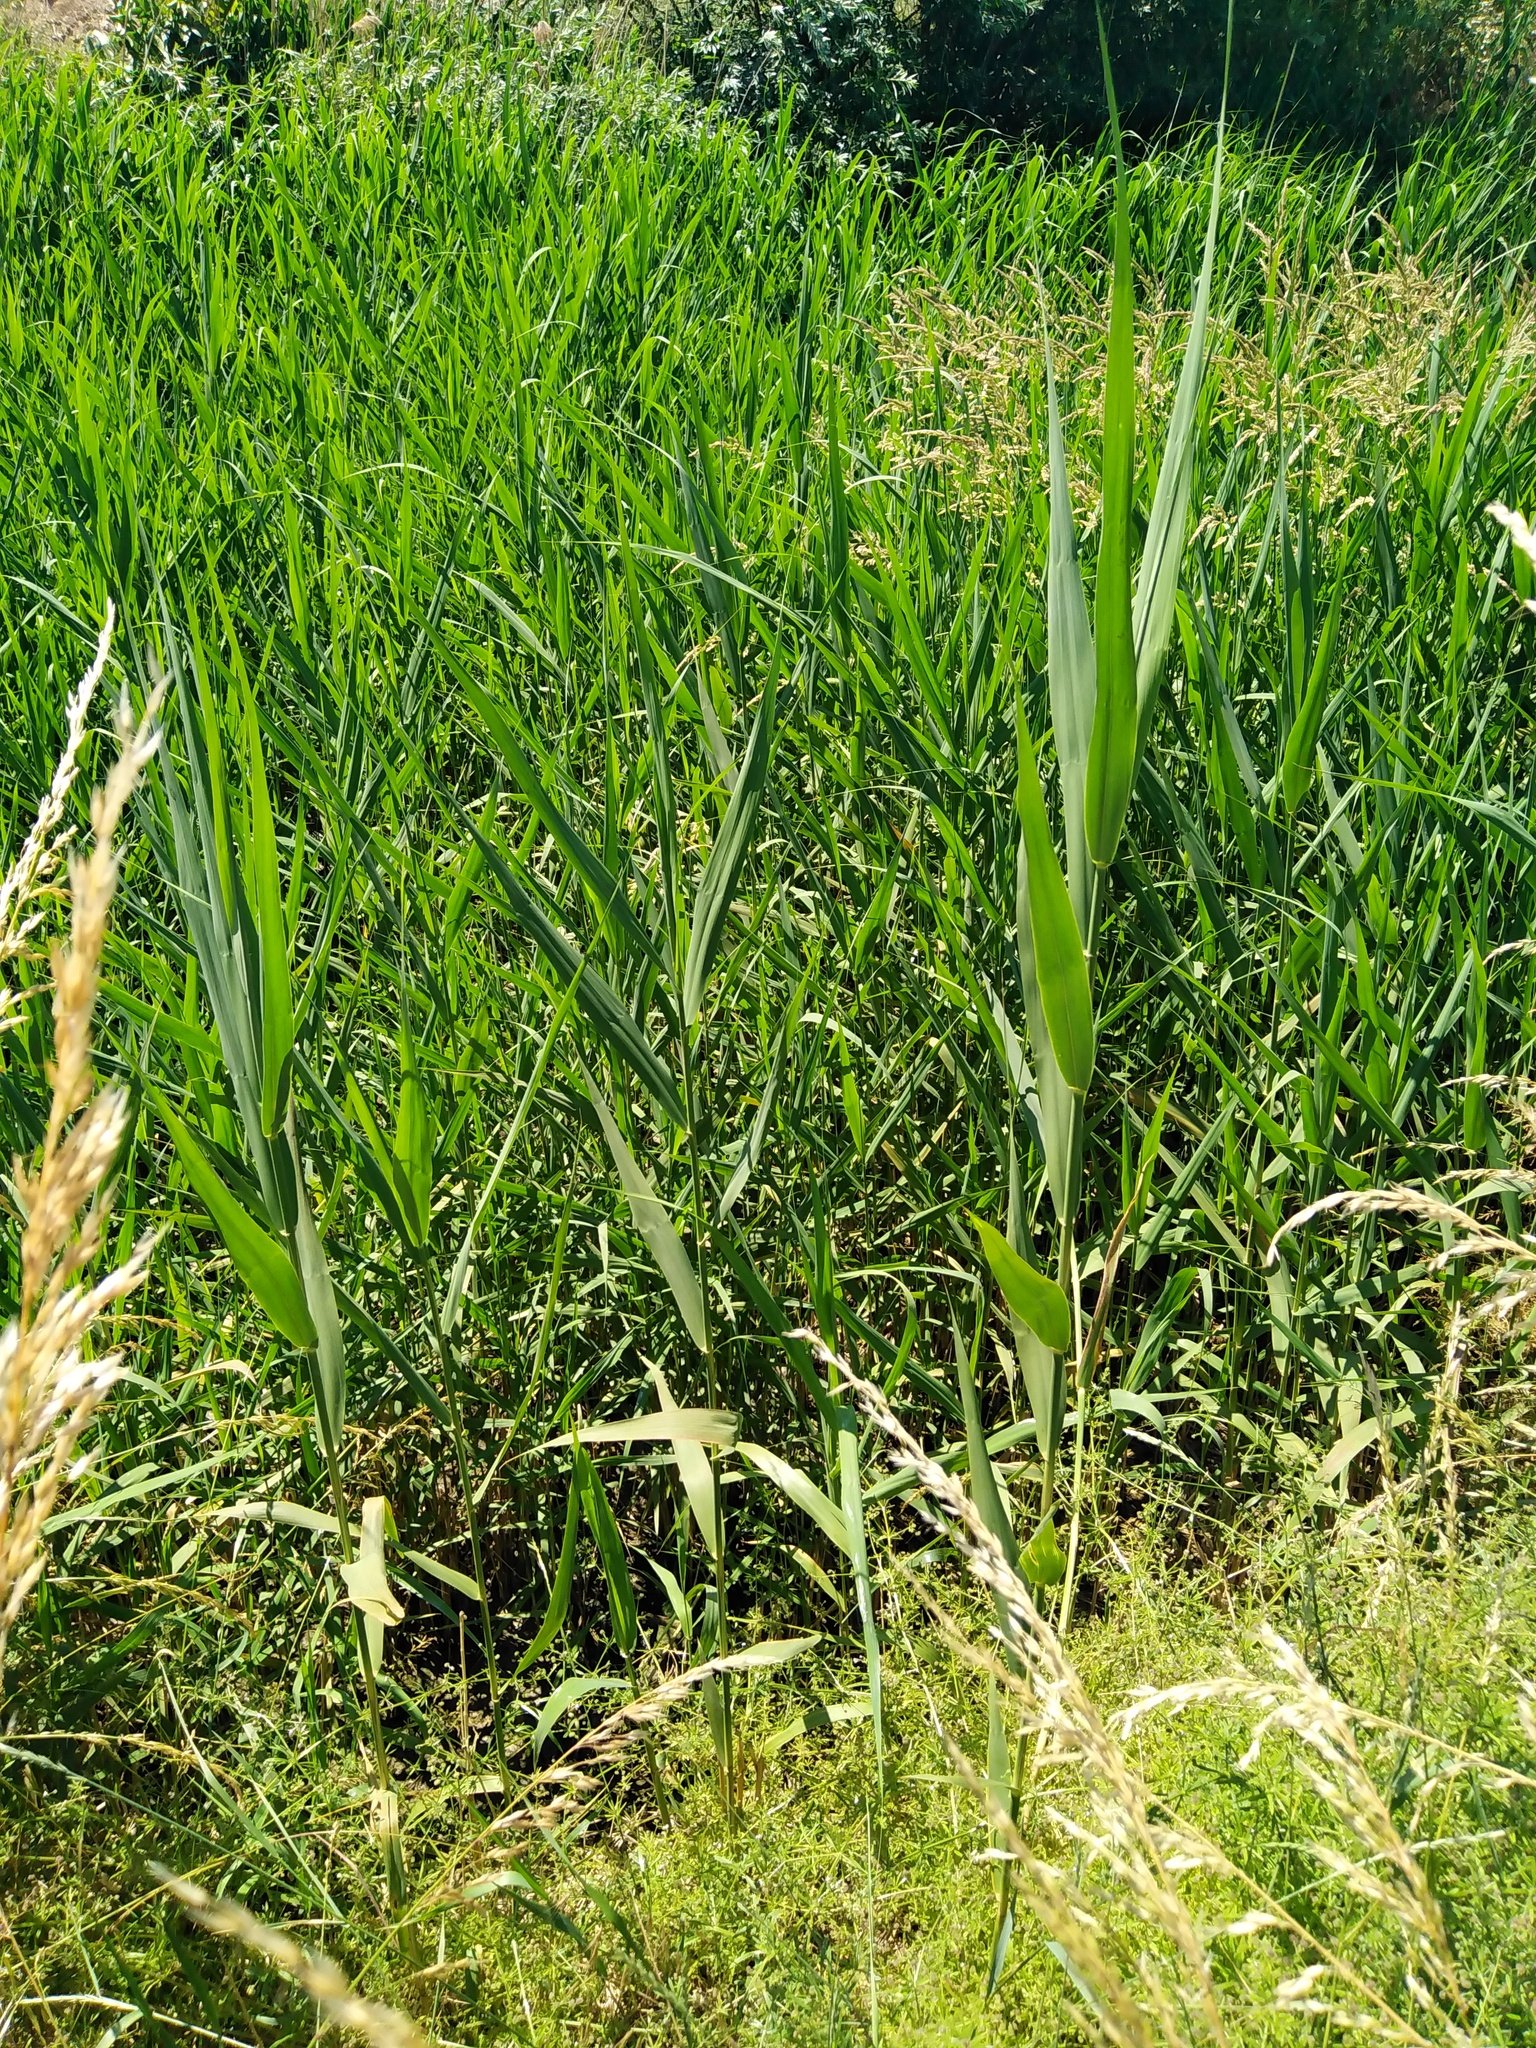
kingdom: Plantae
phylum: Tracheophyta
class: Liliopsida
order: Poales
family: Poaceae
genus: Phragmites
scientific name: Phragmites australis
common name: Common reed
